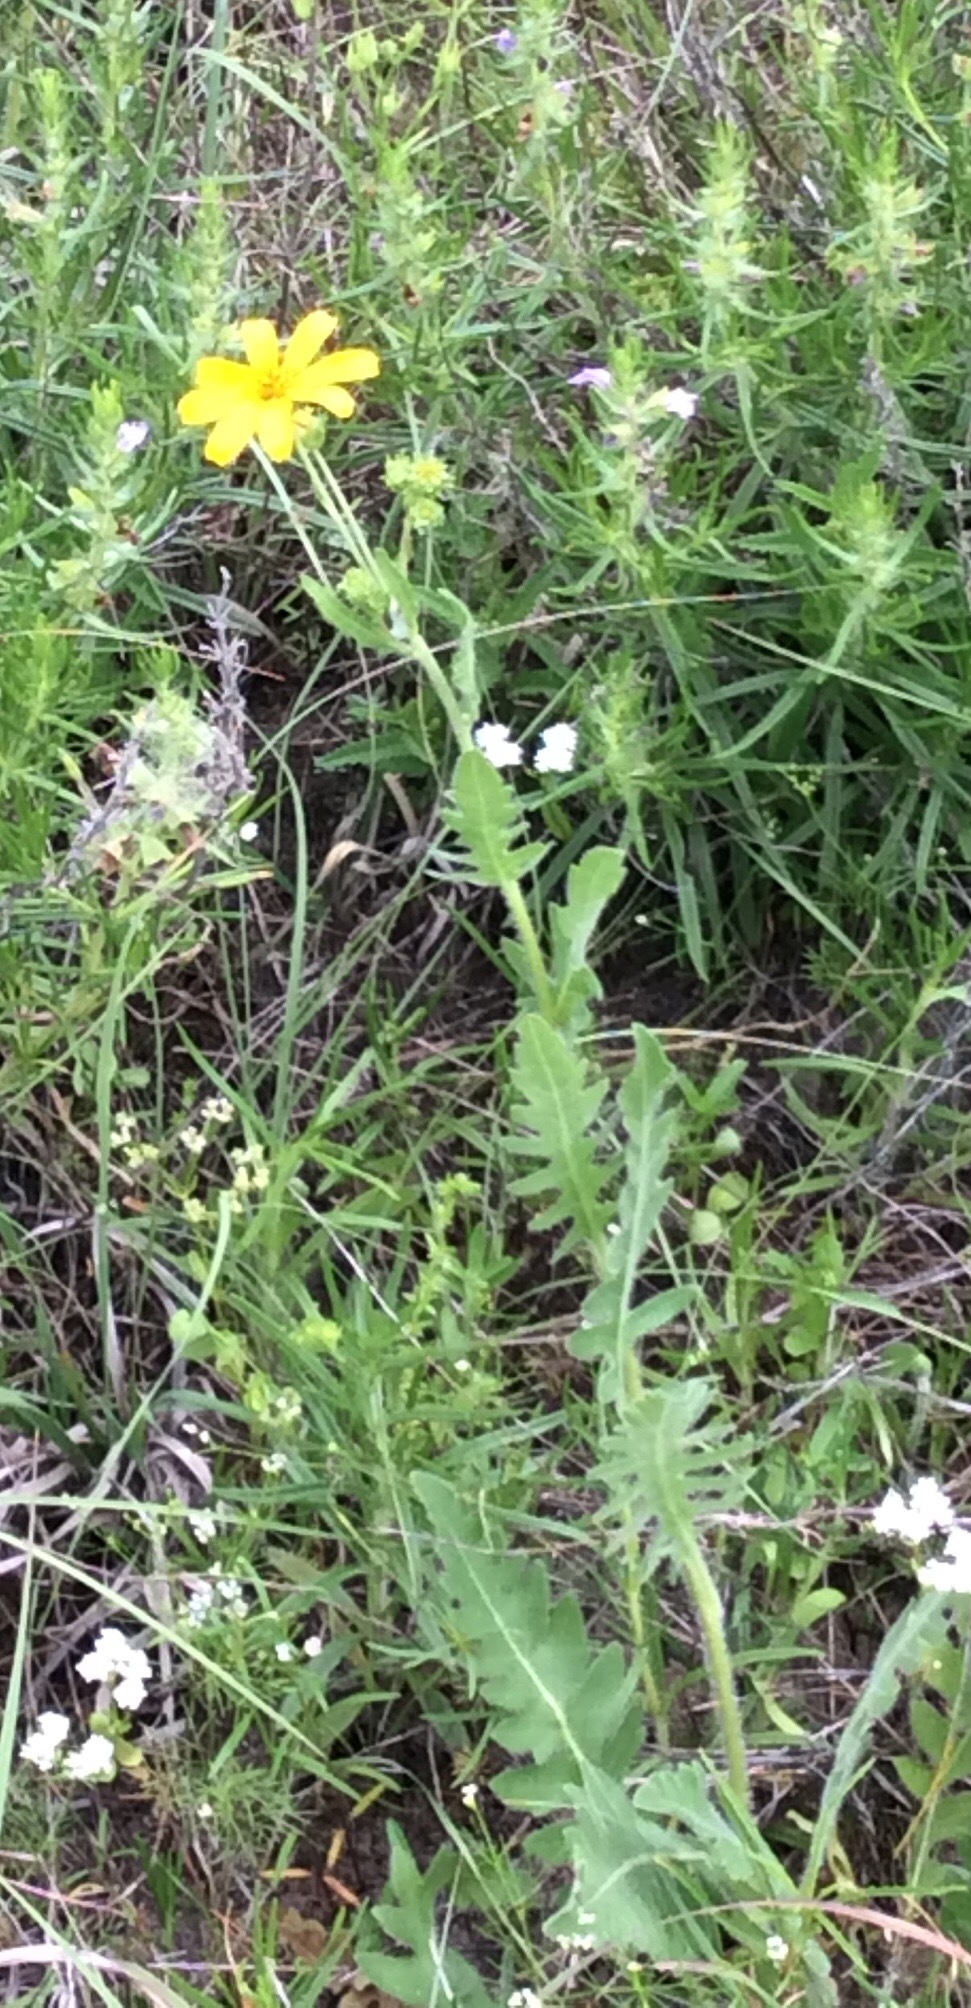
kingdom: Plantae
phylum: Tracheophyta
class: Magnoliopsida
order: Asterales
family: Asteraceae
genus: Engelmannia
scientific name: Engelmannia peristenia
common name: Engelmann's daisy
